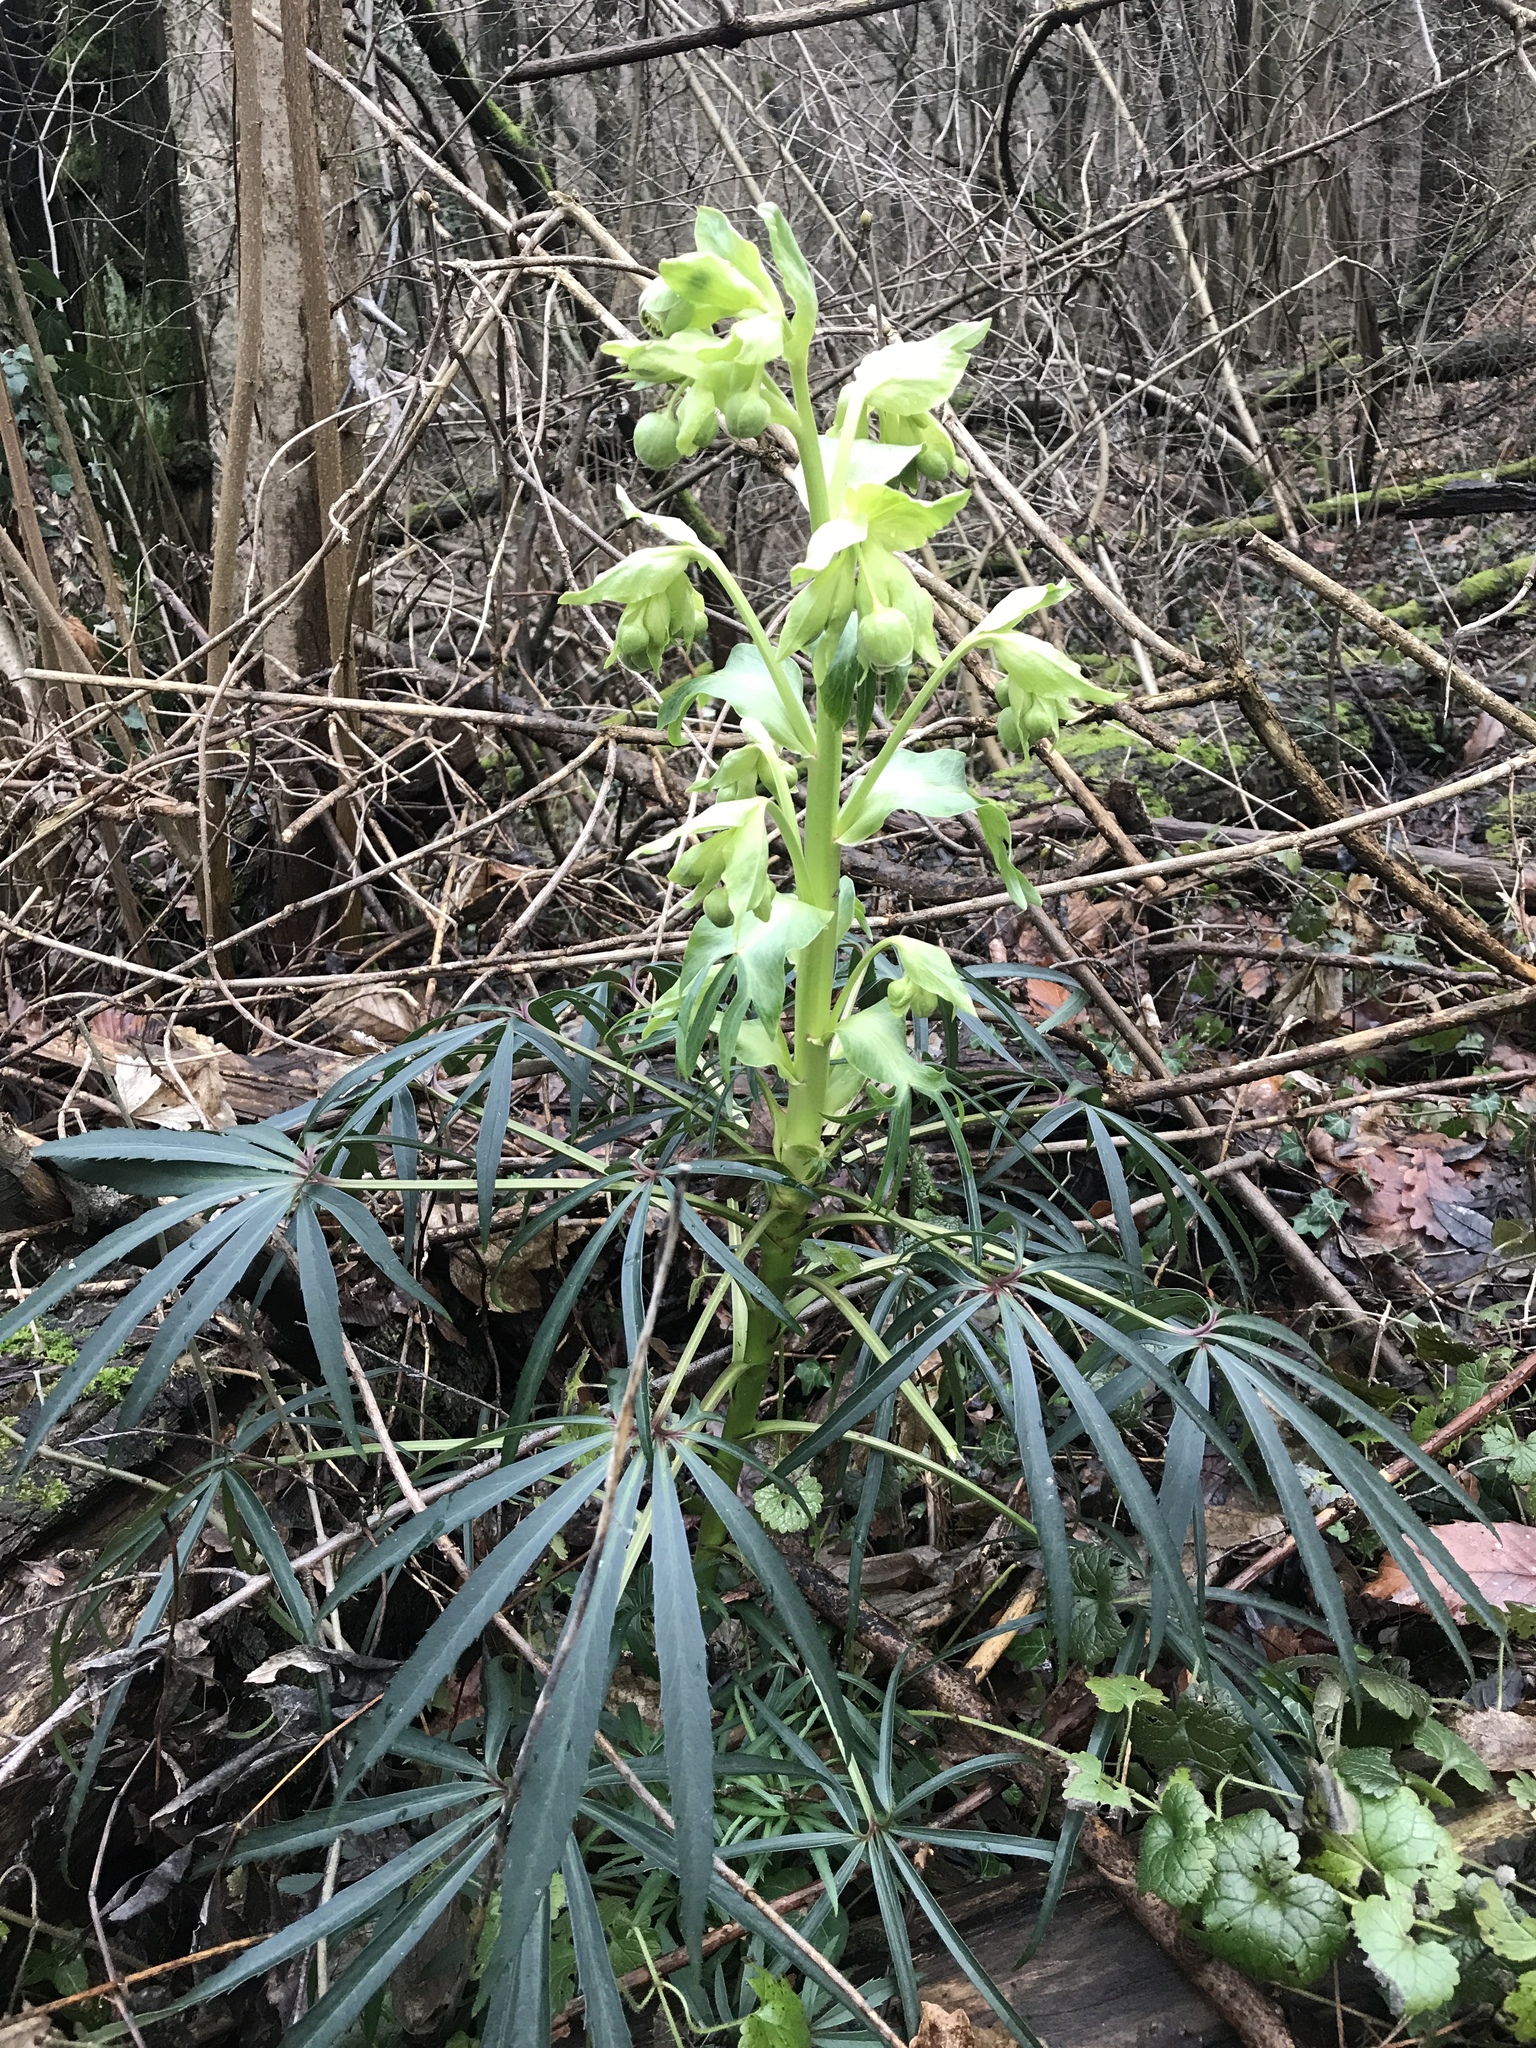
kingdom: Plantae
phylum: Tracheophyta
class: Magnoliopsida
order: Ranunculales
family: Ranunculaceae
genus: Helleborus
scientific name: Helleborus foetidus
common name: Stinking hellebore
